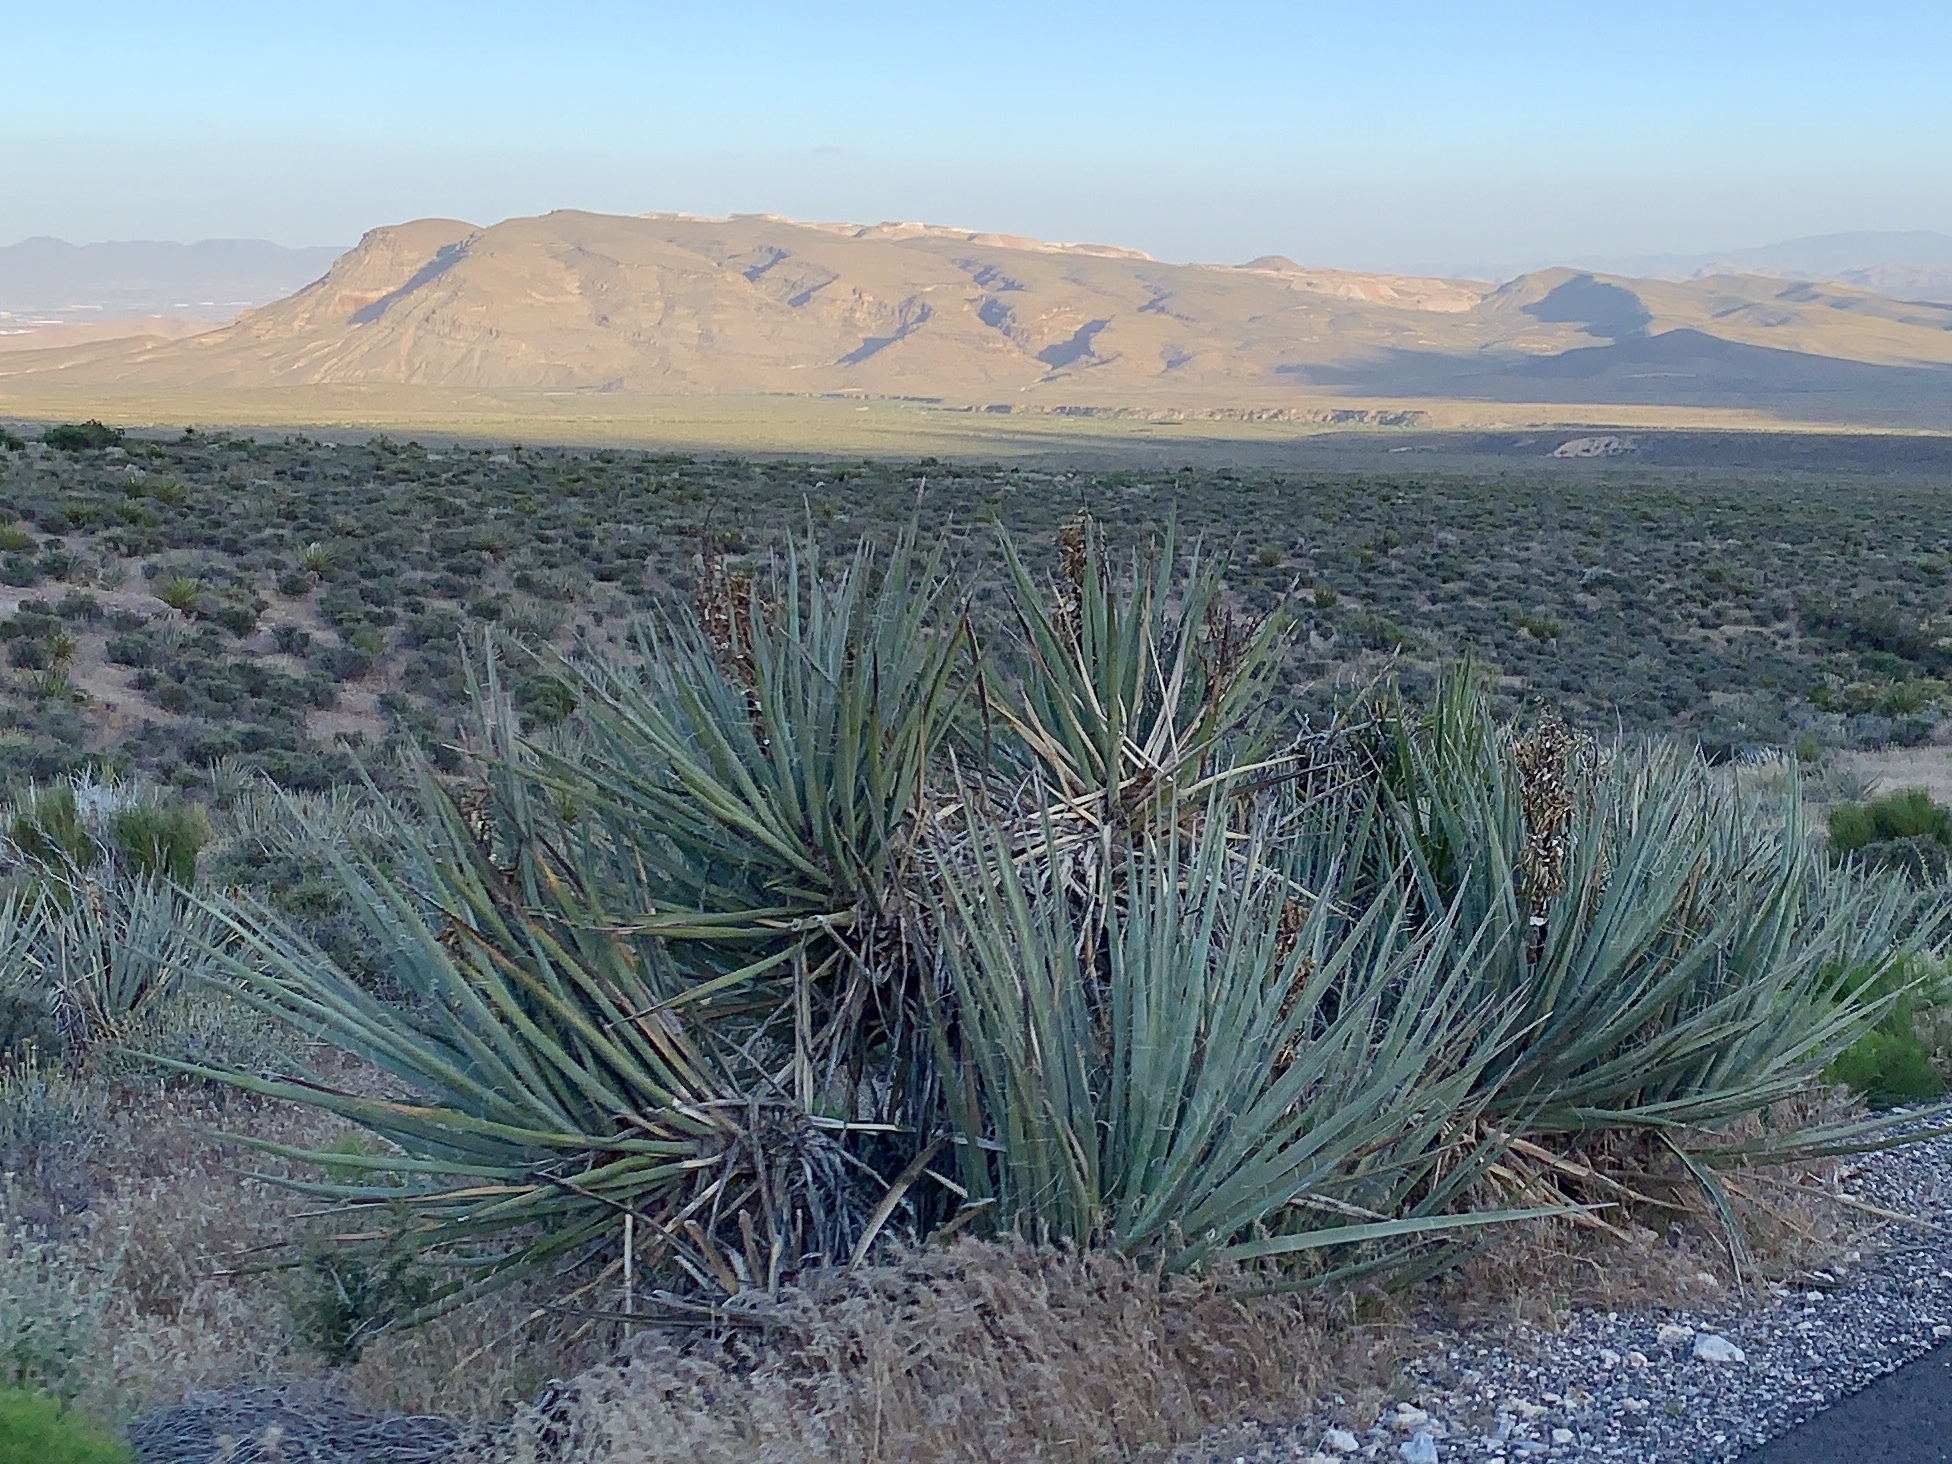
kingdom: Plantae
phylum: Tracheophyta
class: Liliopsida
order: Asparagales
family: Asparagaceae
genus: Yucca
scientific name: Yucca baccata
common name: Banana yucca
